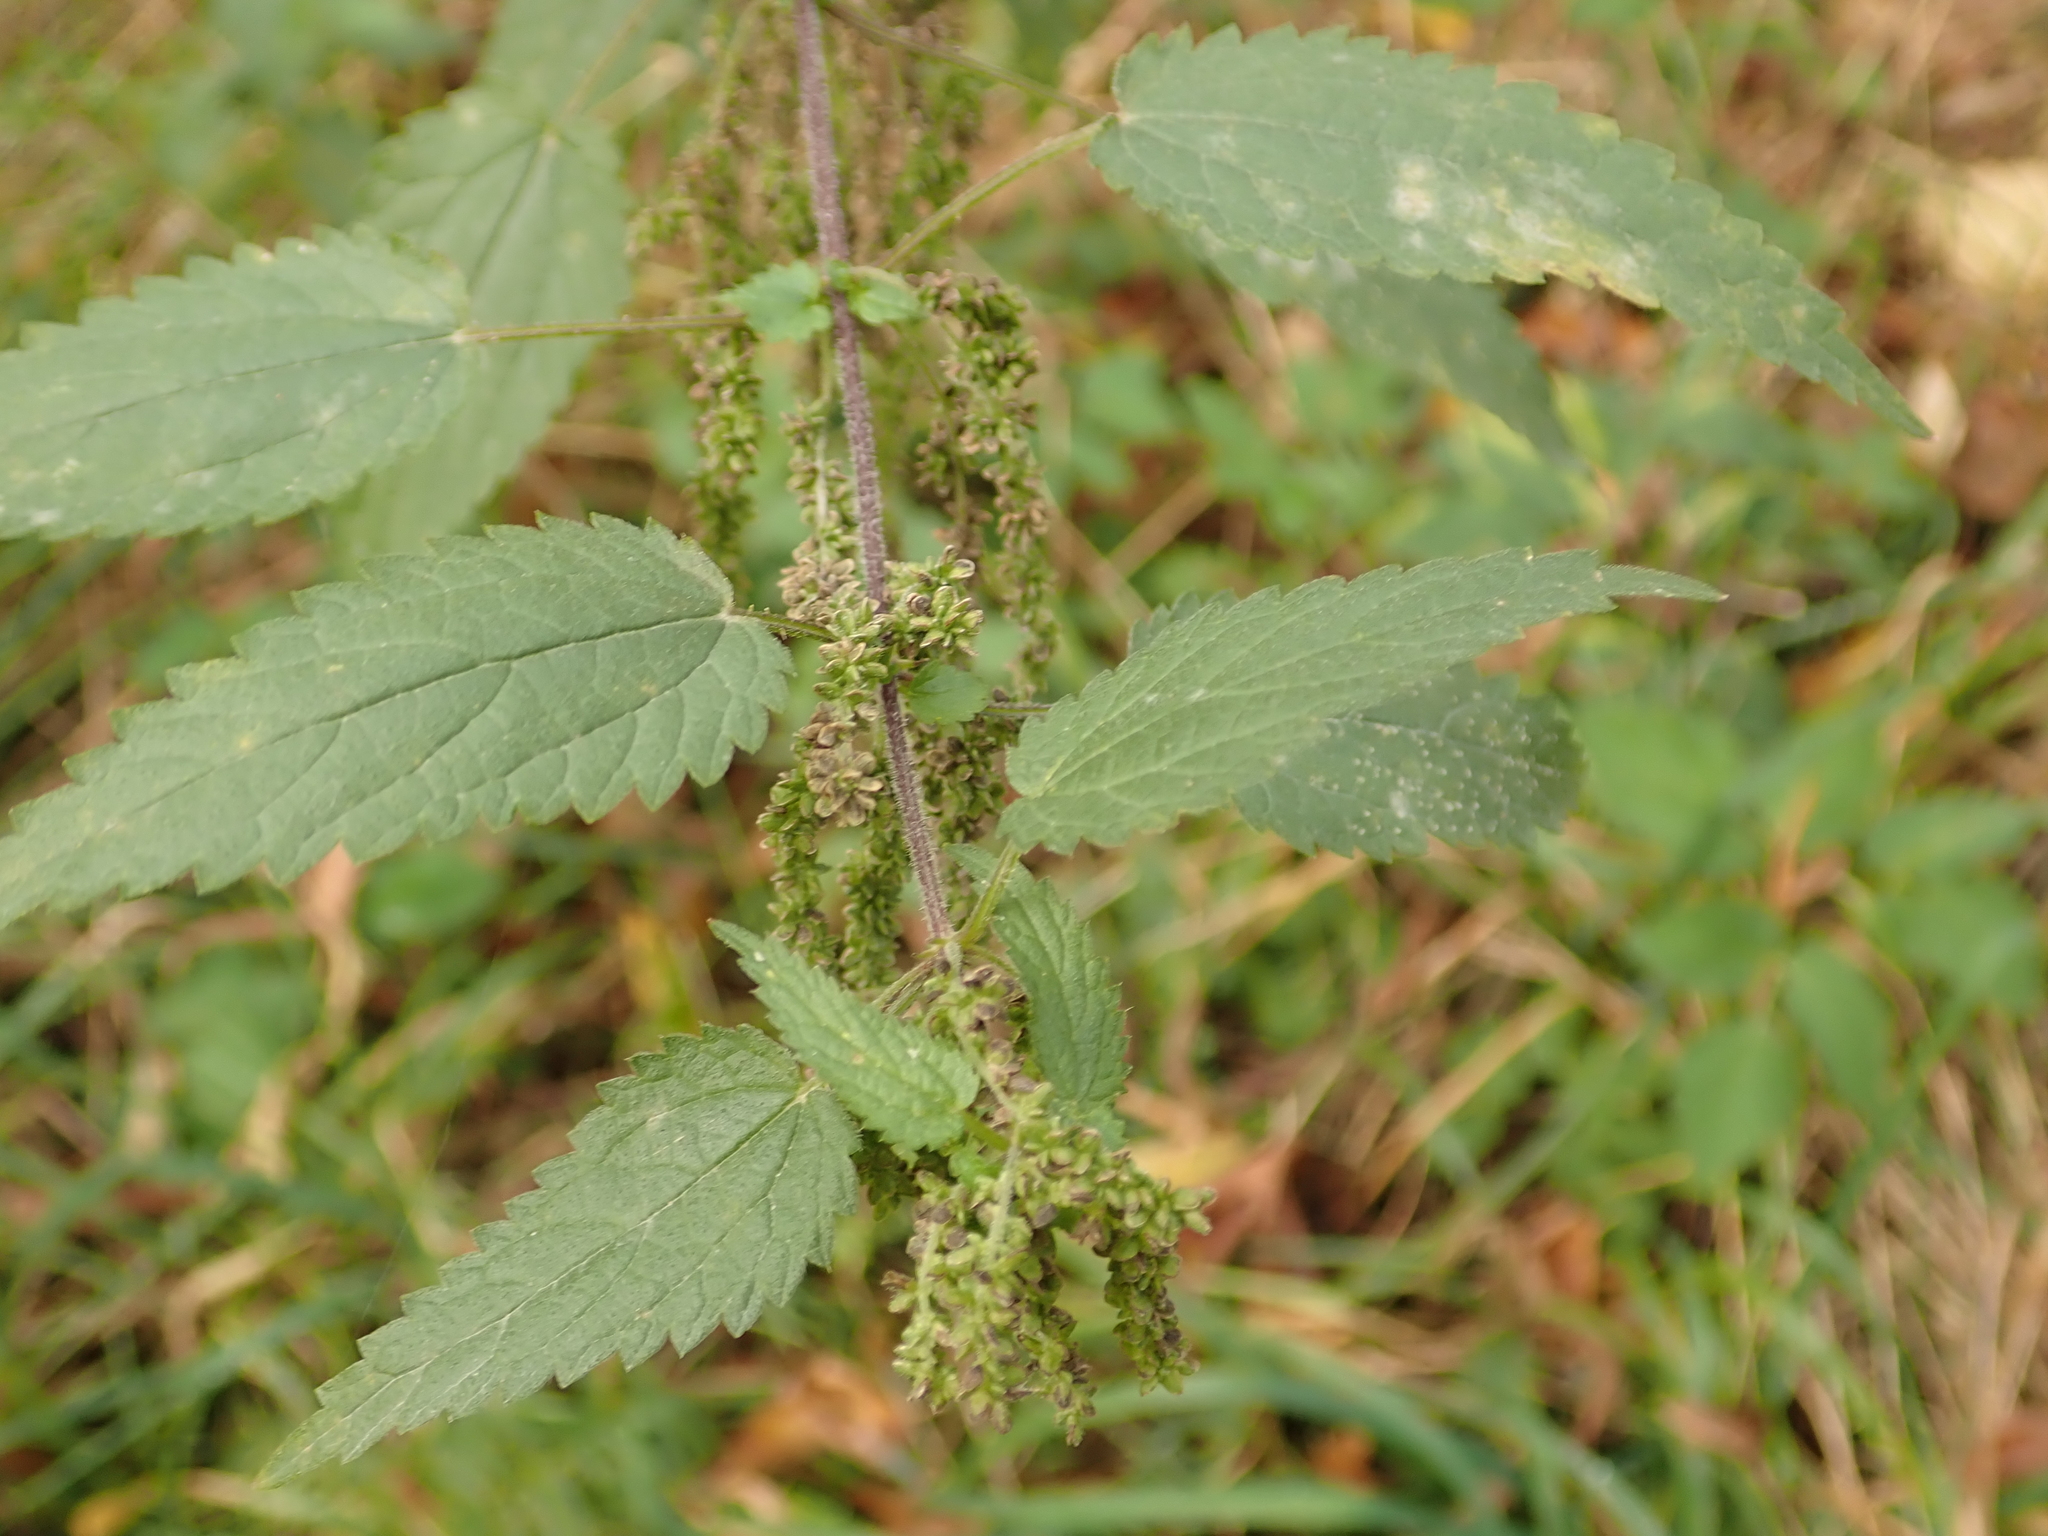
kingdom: Plantae
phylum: Tracheophyta
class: Magnoliopsida
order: Rosales
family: Urticaceae
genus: Urtica
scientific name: Urtica dioica
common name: Common nettle
